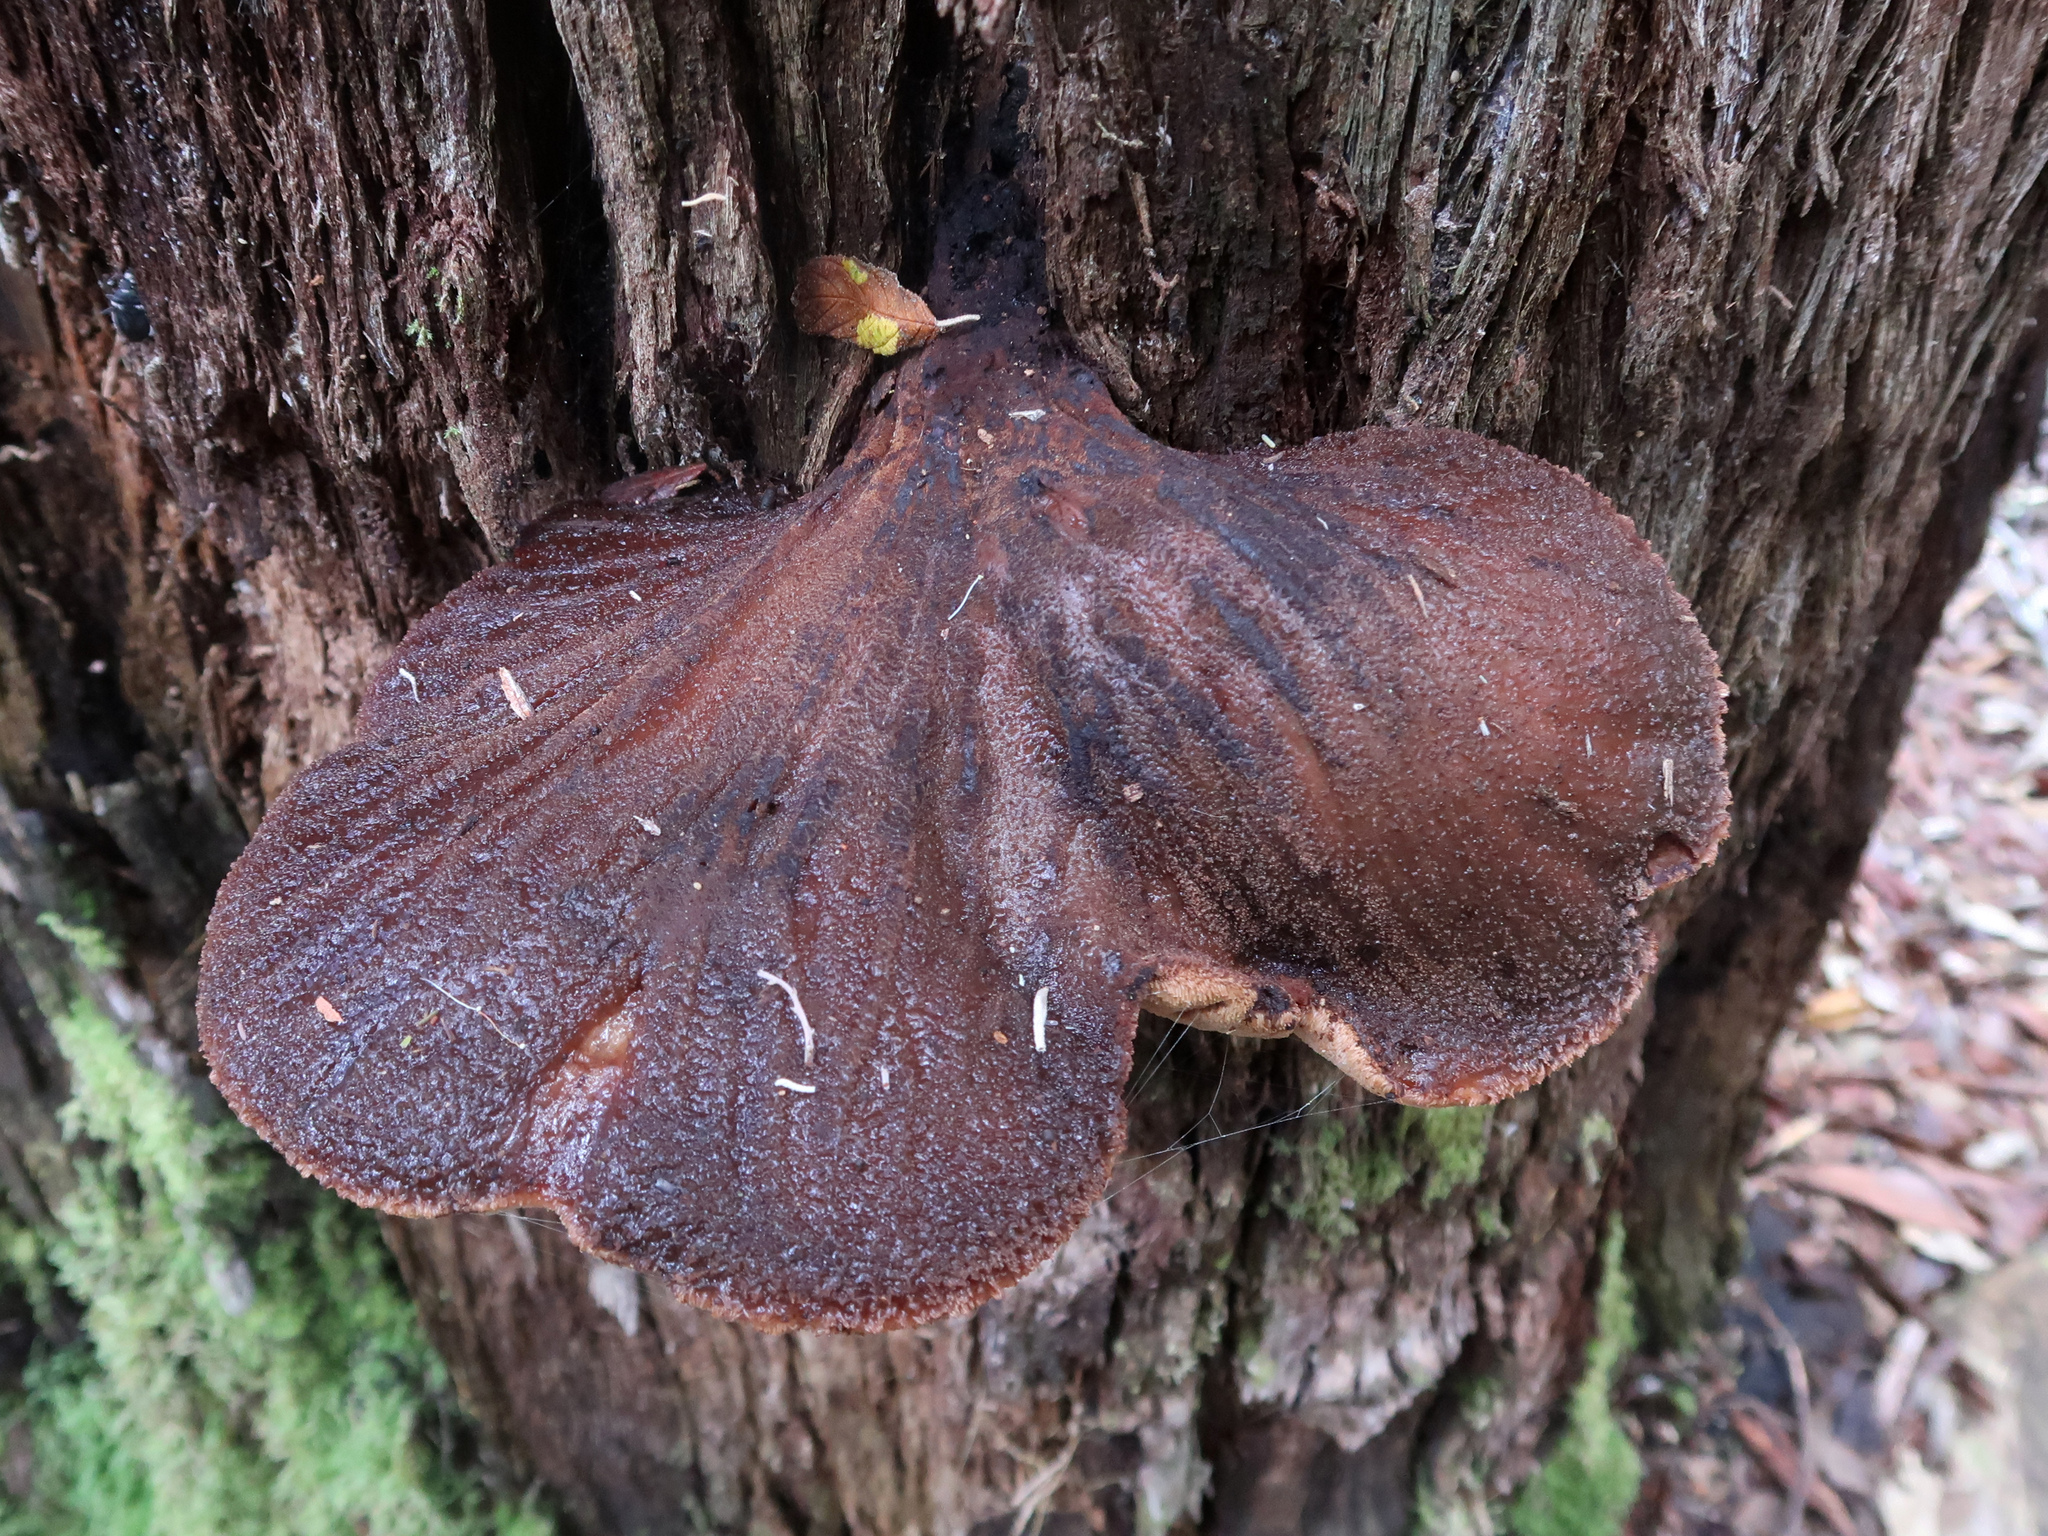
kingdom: Fungi
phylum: Basidiomycota
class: Agaricomycetes
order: Agaricales
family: Fistulinaceae
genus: Fistulina
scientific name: Fistulina spiculifera
